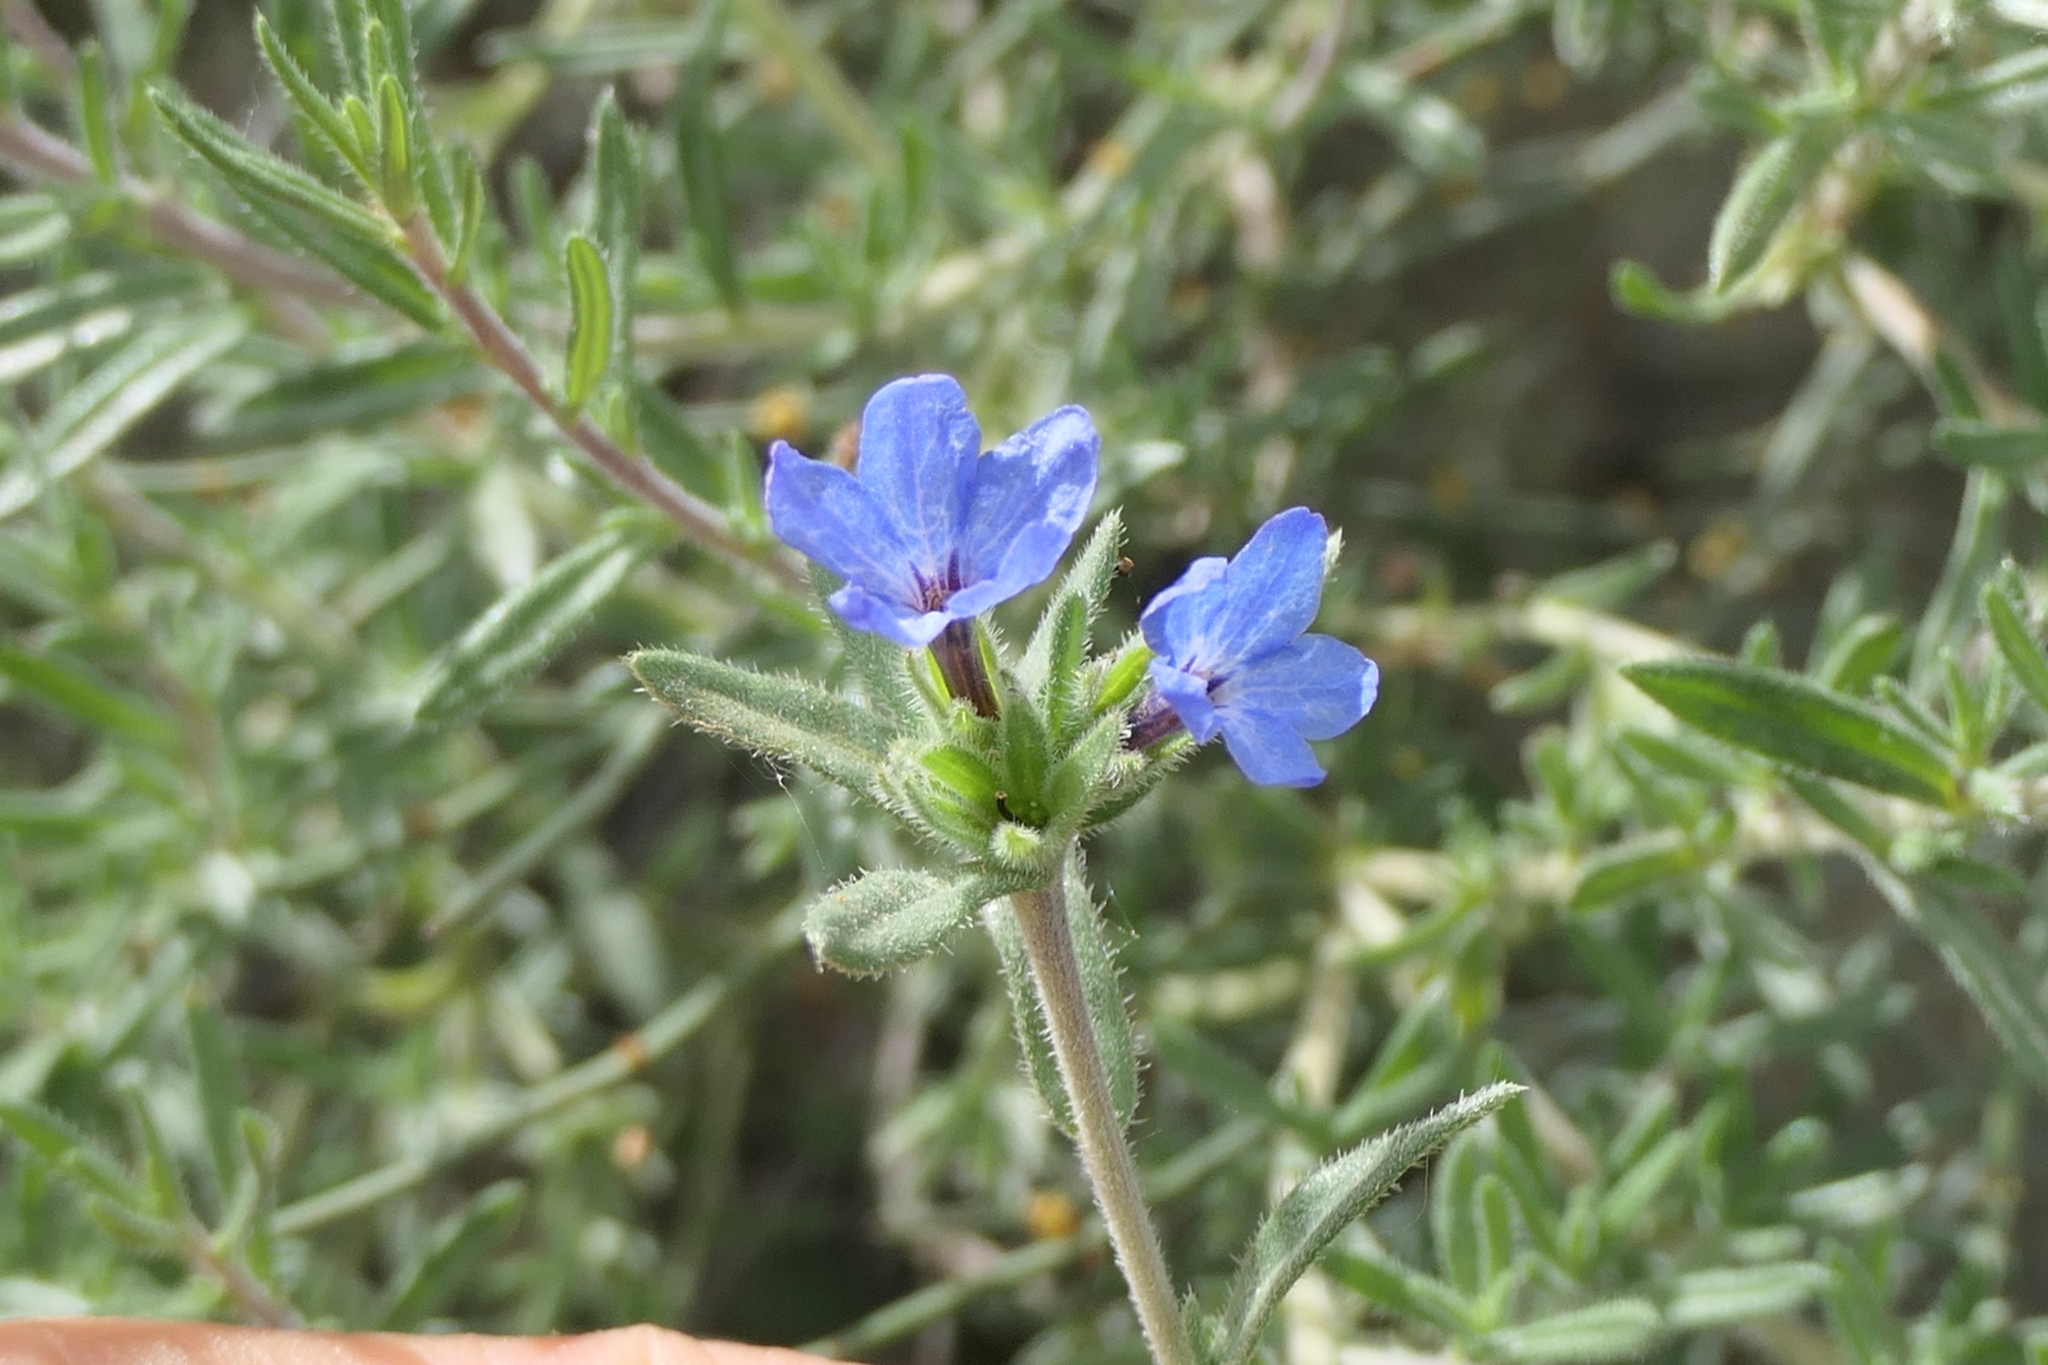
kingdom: Plantae
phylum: Tracheophyta
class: Magnoliopsida
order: Boraginales
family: Boraginaceae
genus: Lithodora
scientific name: Lithodora fruticosa
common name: Shrubby gromwell
